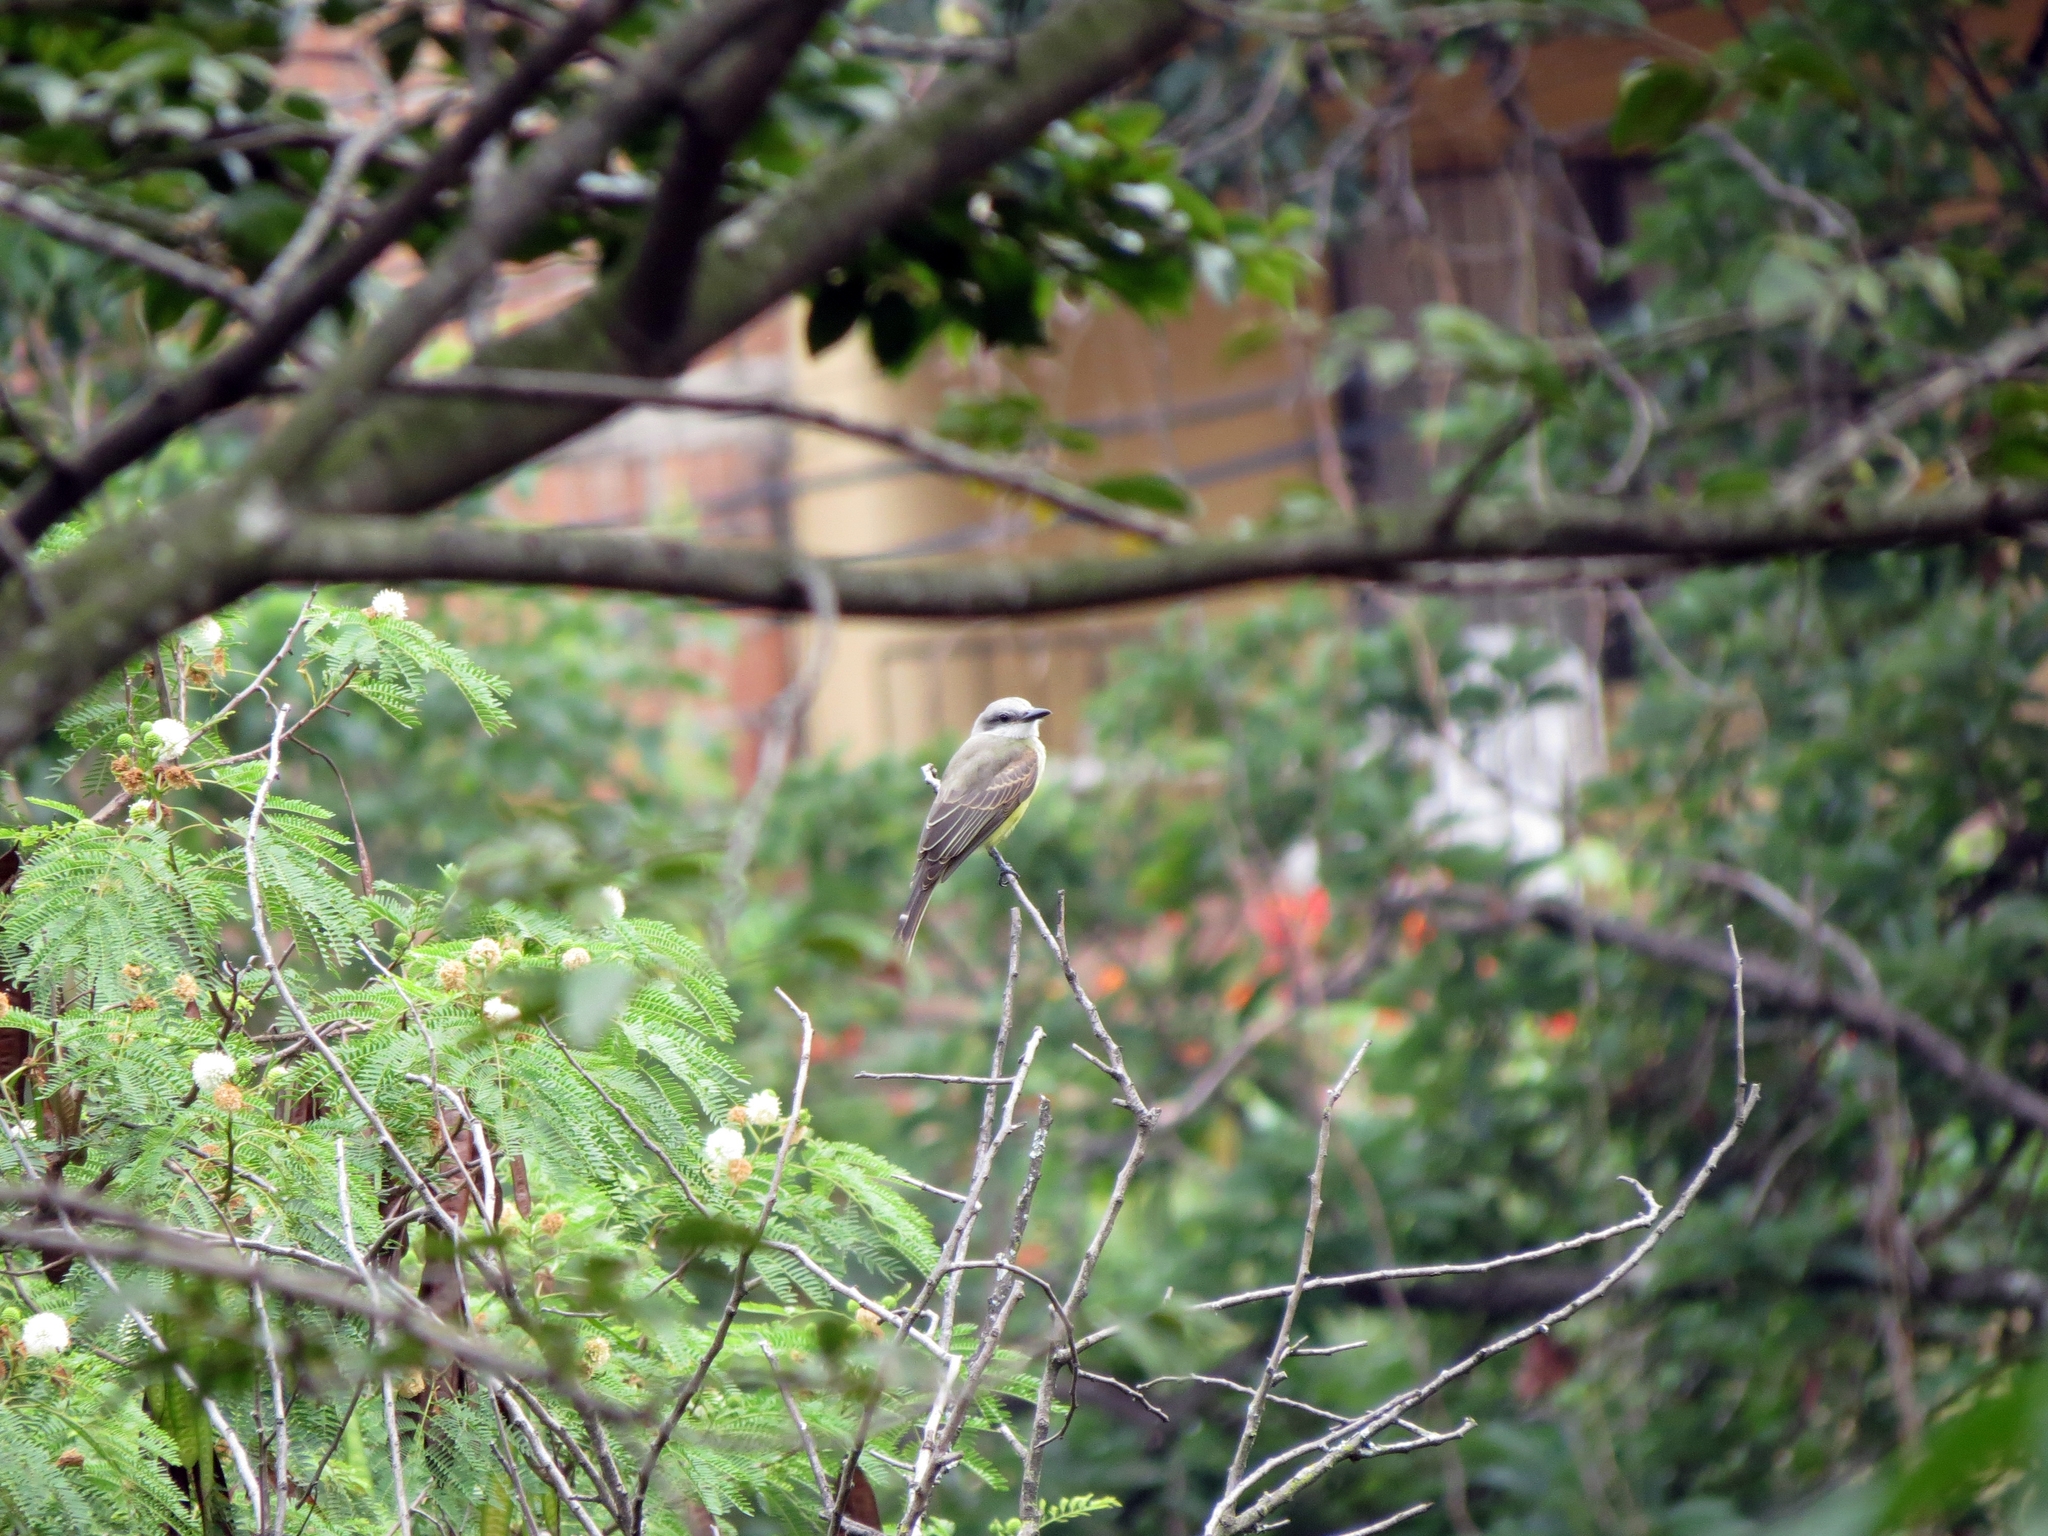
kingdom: Animalia
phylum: Chordata
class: Aves
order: Passeriformes
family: Tyrannidae
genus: Tyrannus
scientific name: Tyrannus melancholicus
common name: Tropical kingbird
